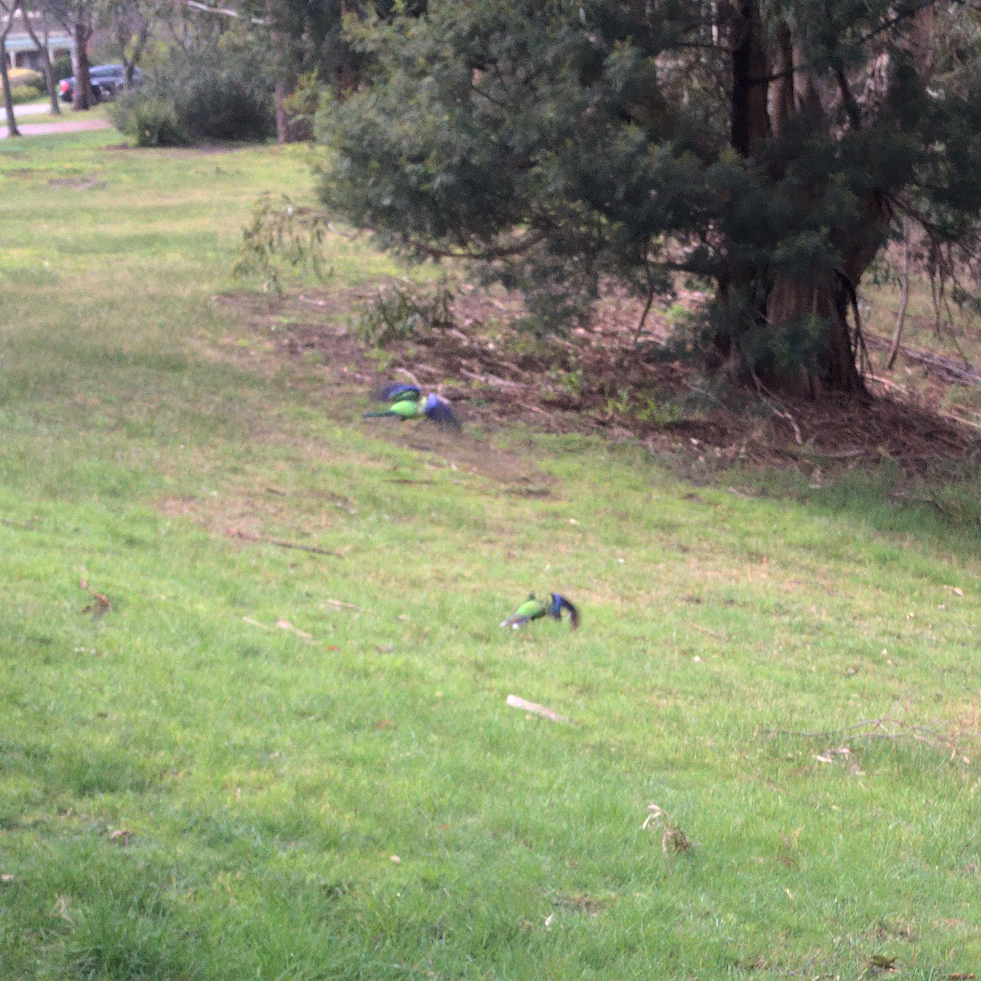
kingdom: Animalia
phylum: Chordata
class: Aves
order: Psittaciformes
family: Psittacidae
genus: Platycercus
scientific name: Platycercus eximius
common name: Eastern rosella
